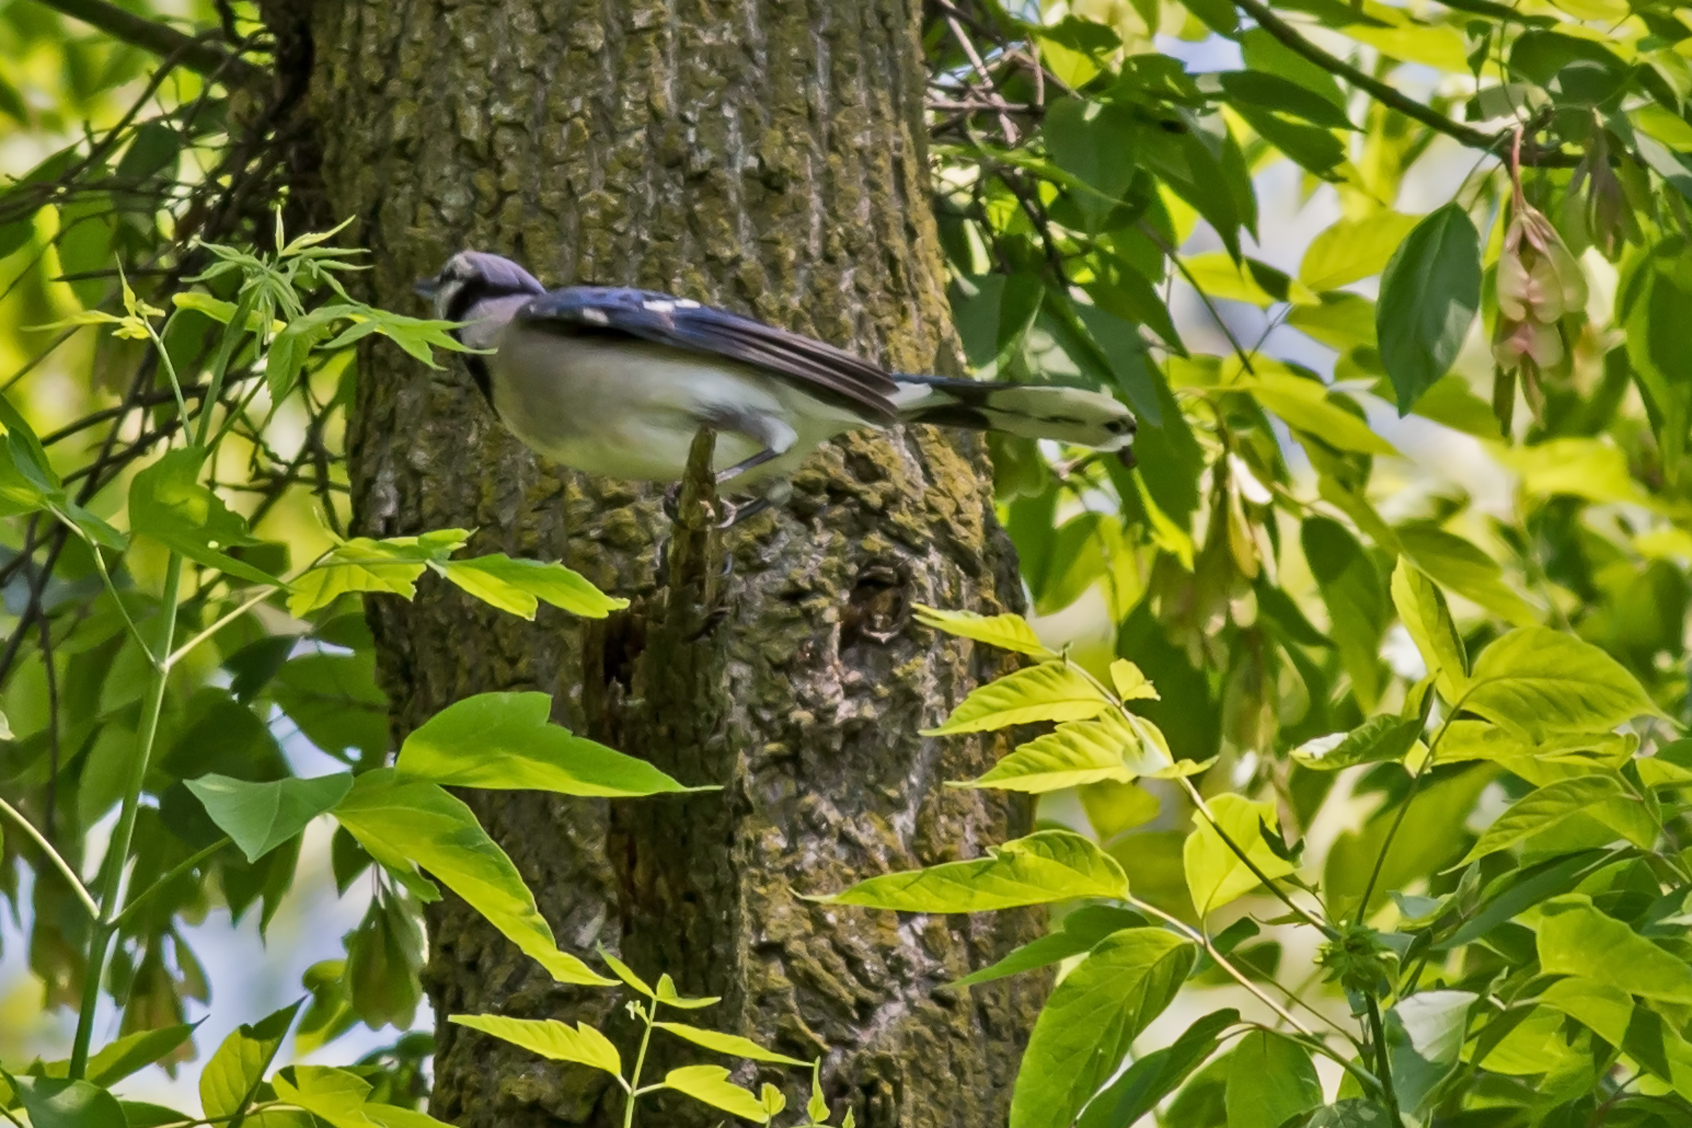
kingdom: Animalia
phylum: Chordata
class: Aves
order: Passeriformes
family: Corvidae
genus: Cyanocitta
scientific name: Cyanocitta cristata
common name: Blue jay
